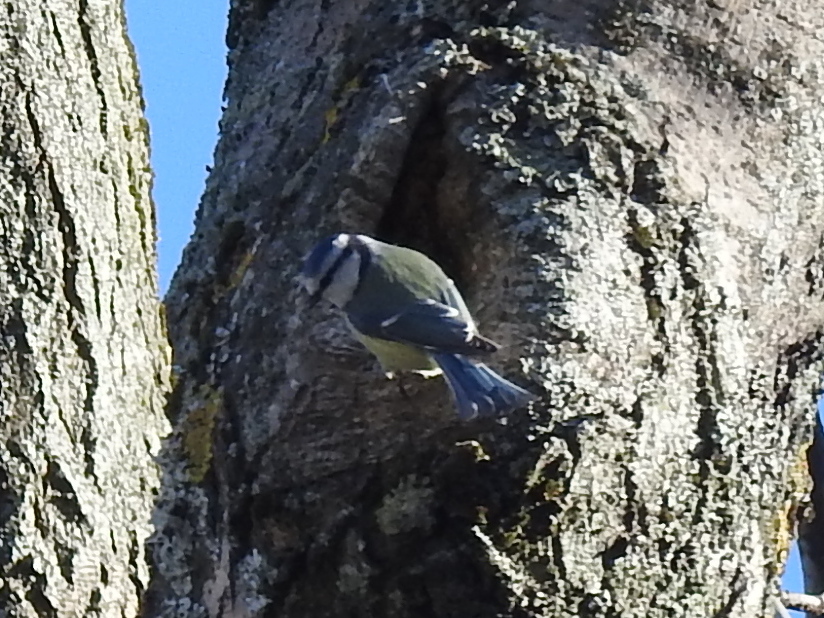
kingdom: Animalia
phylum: Chordata
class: Aves
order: Passeriformes
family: Paridae
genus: Cyanistes
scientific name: Cyanistes caeruleus
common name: Eurasian blue tit
